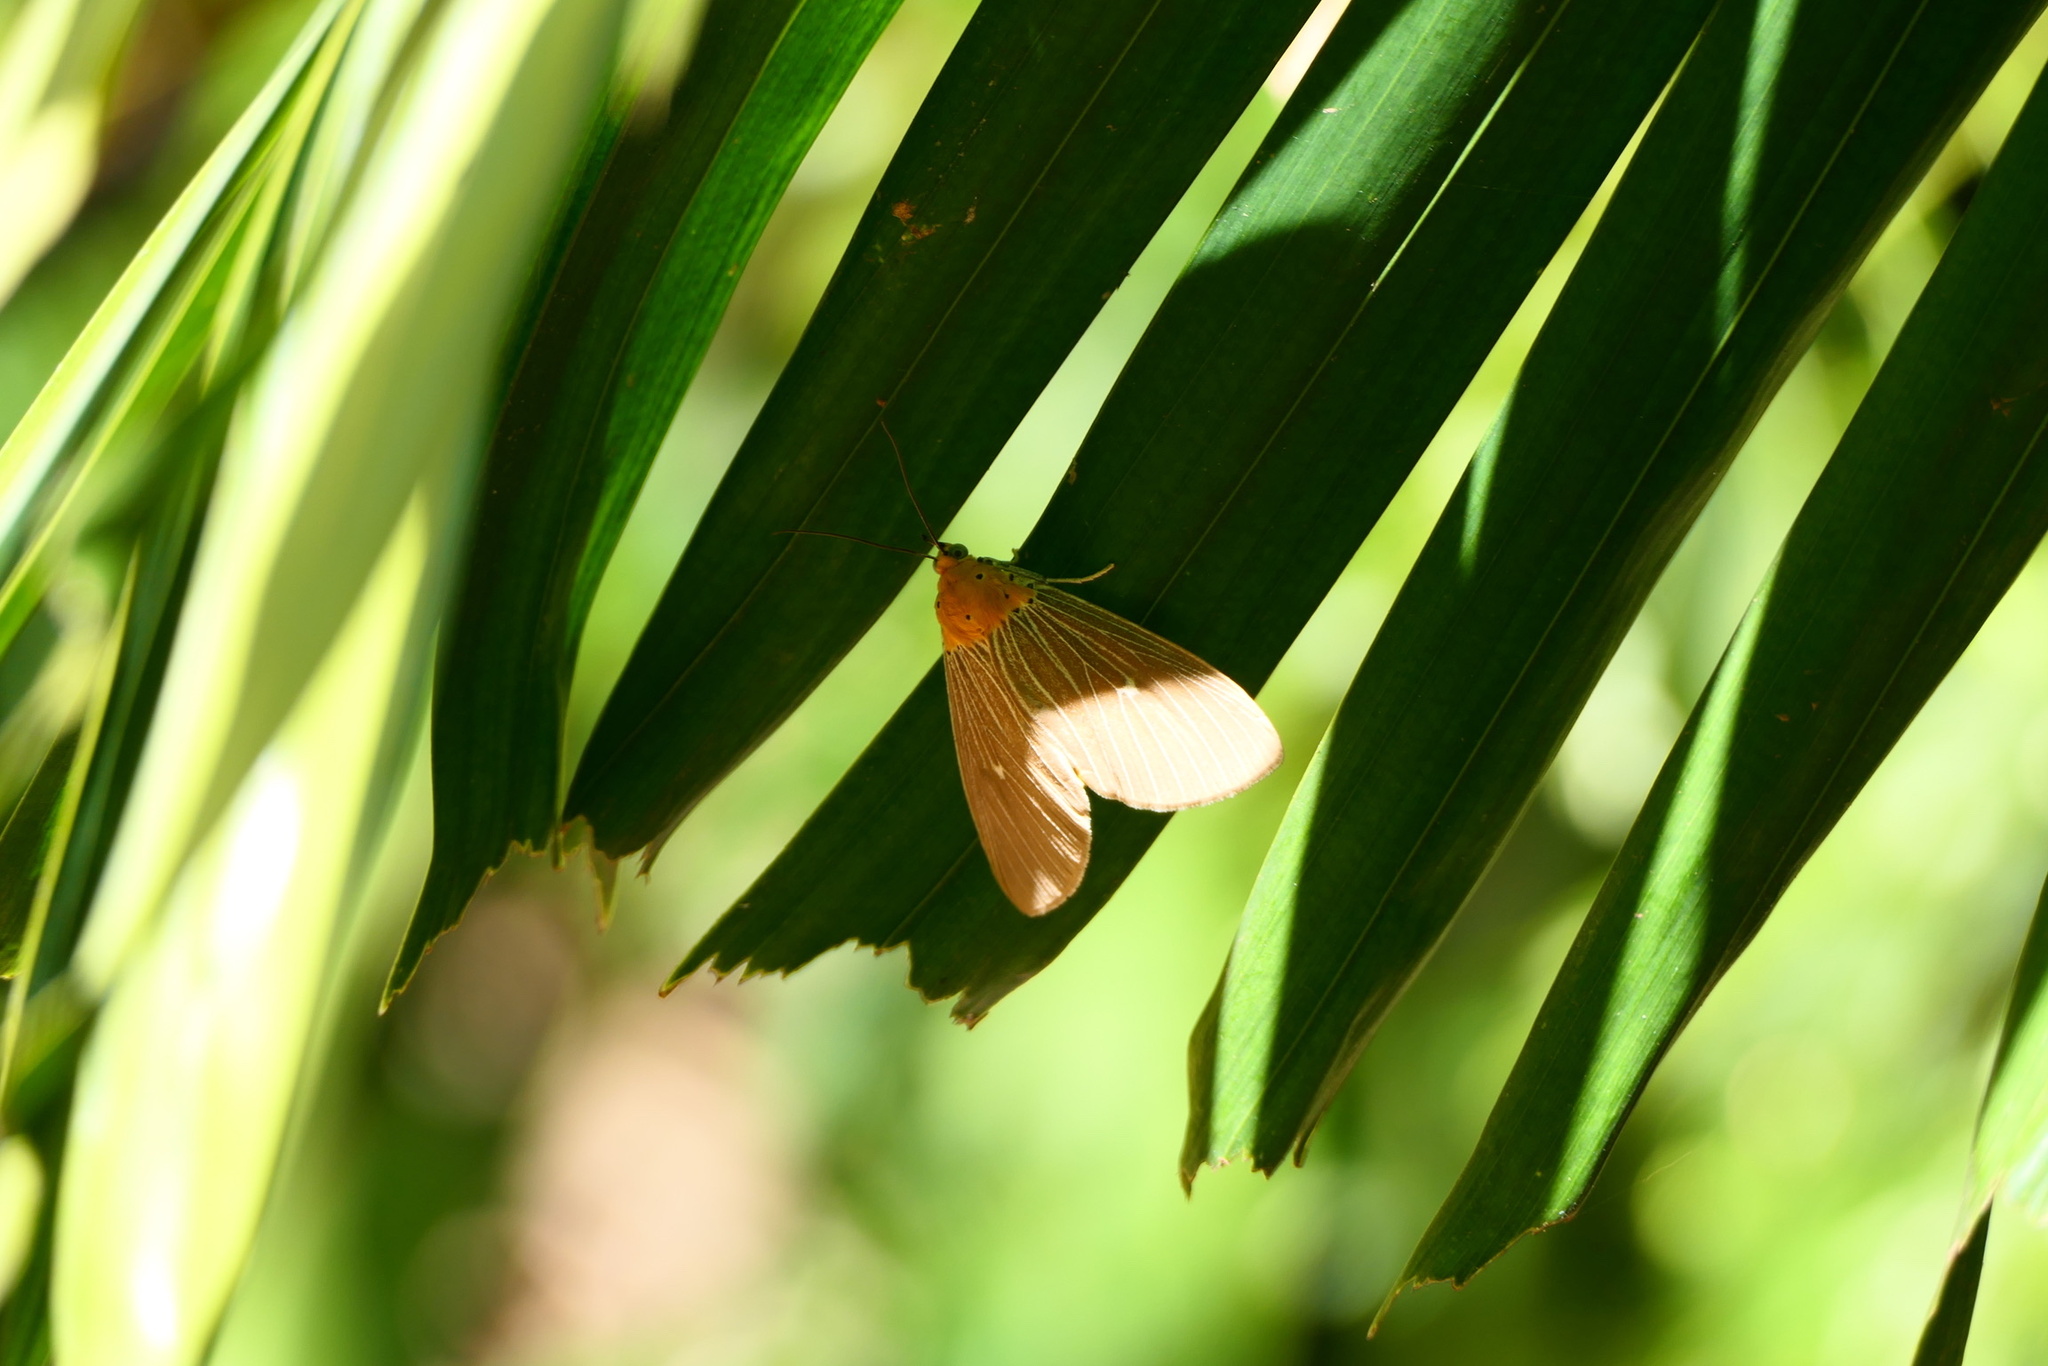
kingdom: Animalia
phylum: Arthropoda
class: Insecta
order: Lepidoptera
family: Erebidae
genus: Asota
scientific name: Asota caricae
